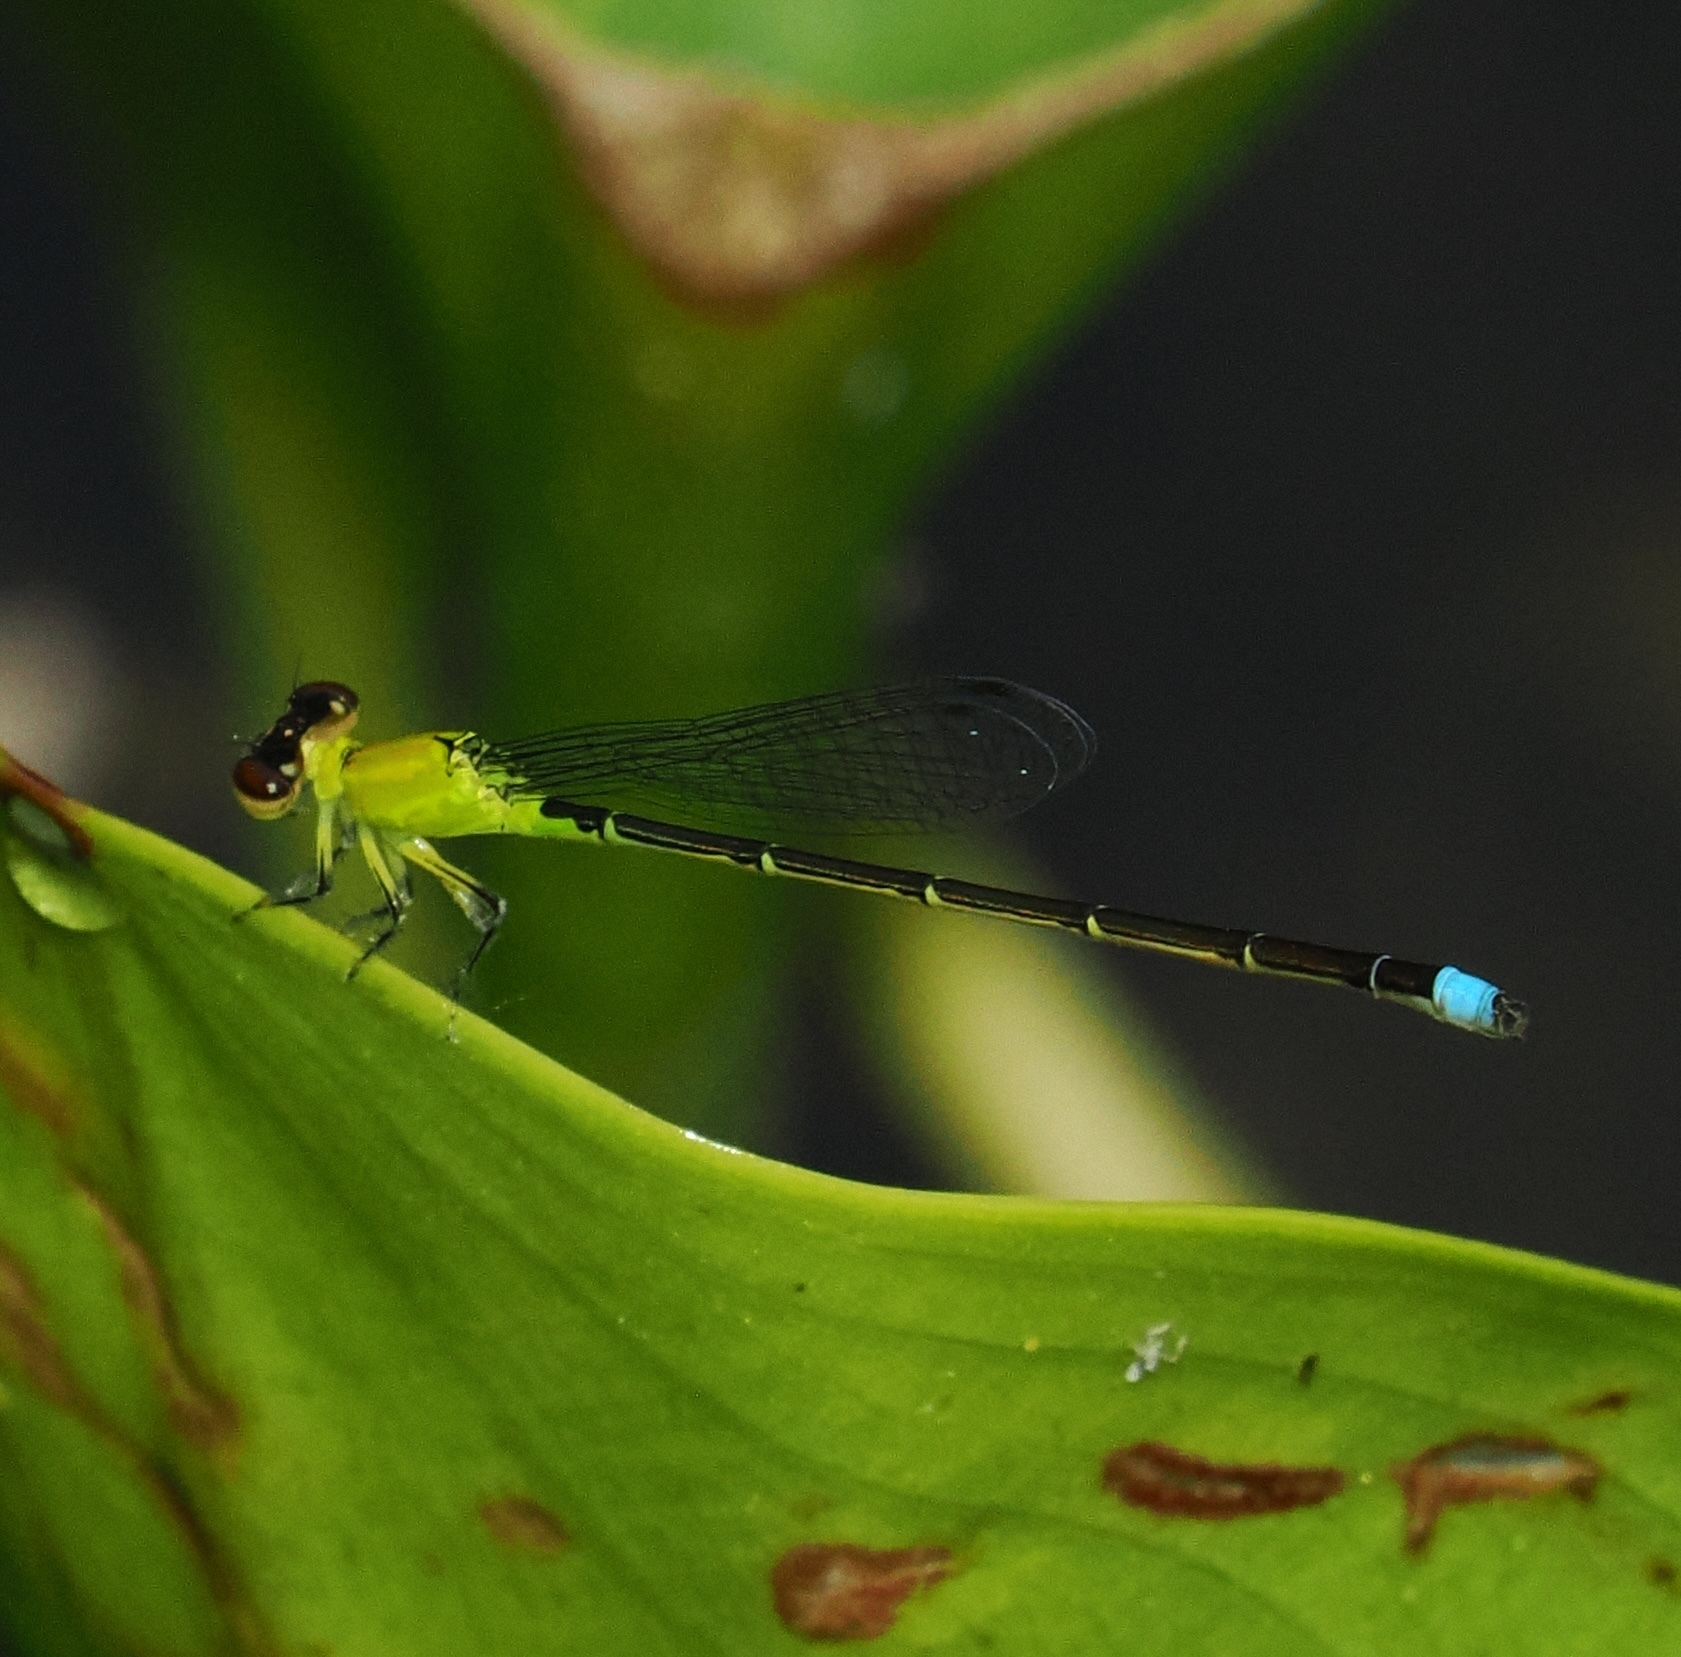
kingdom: Animalia
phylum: Arthropoda
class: Insecta
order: Odonata
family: Coenagrionidae
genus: Ischnura
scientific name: Ischnura capreolus
